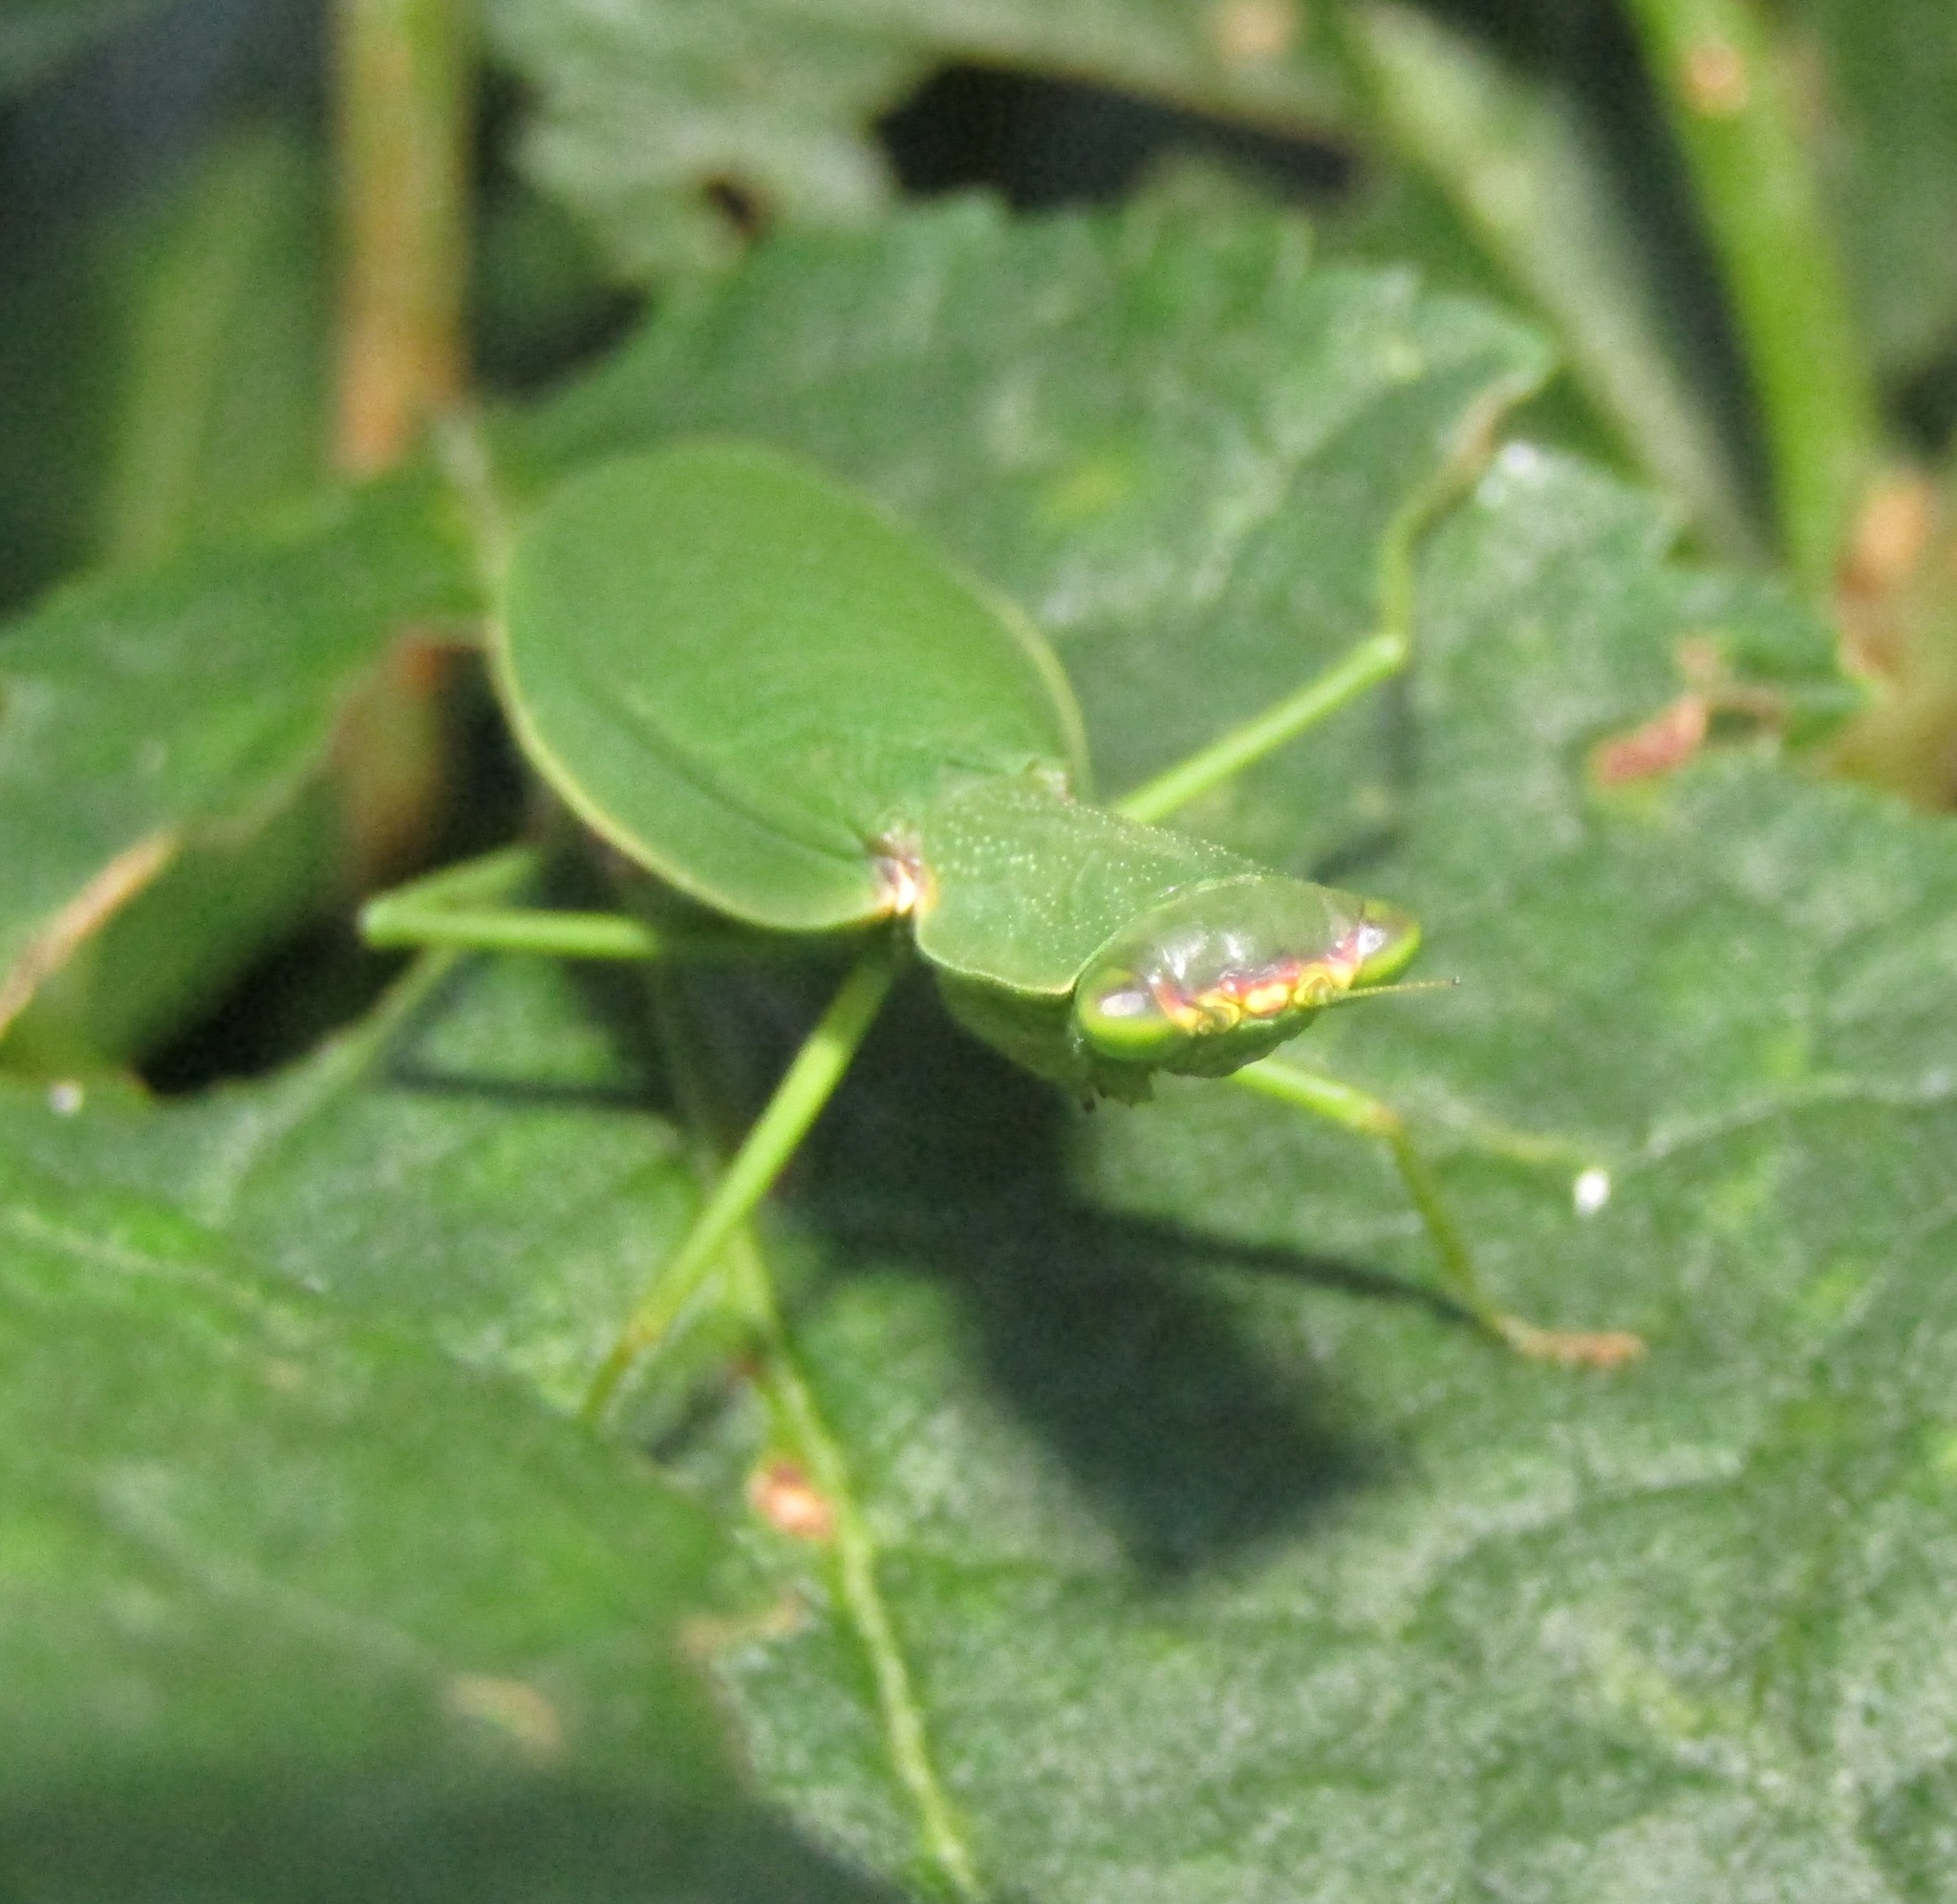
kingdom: Animalia
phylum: Arthropoda
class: Insecta
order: Mantodea
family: Mantidae
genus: Orthodera
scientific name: Orthodera novaezealandiae
